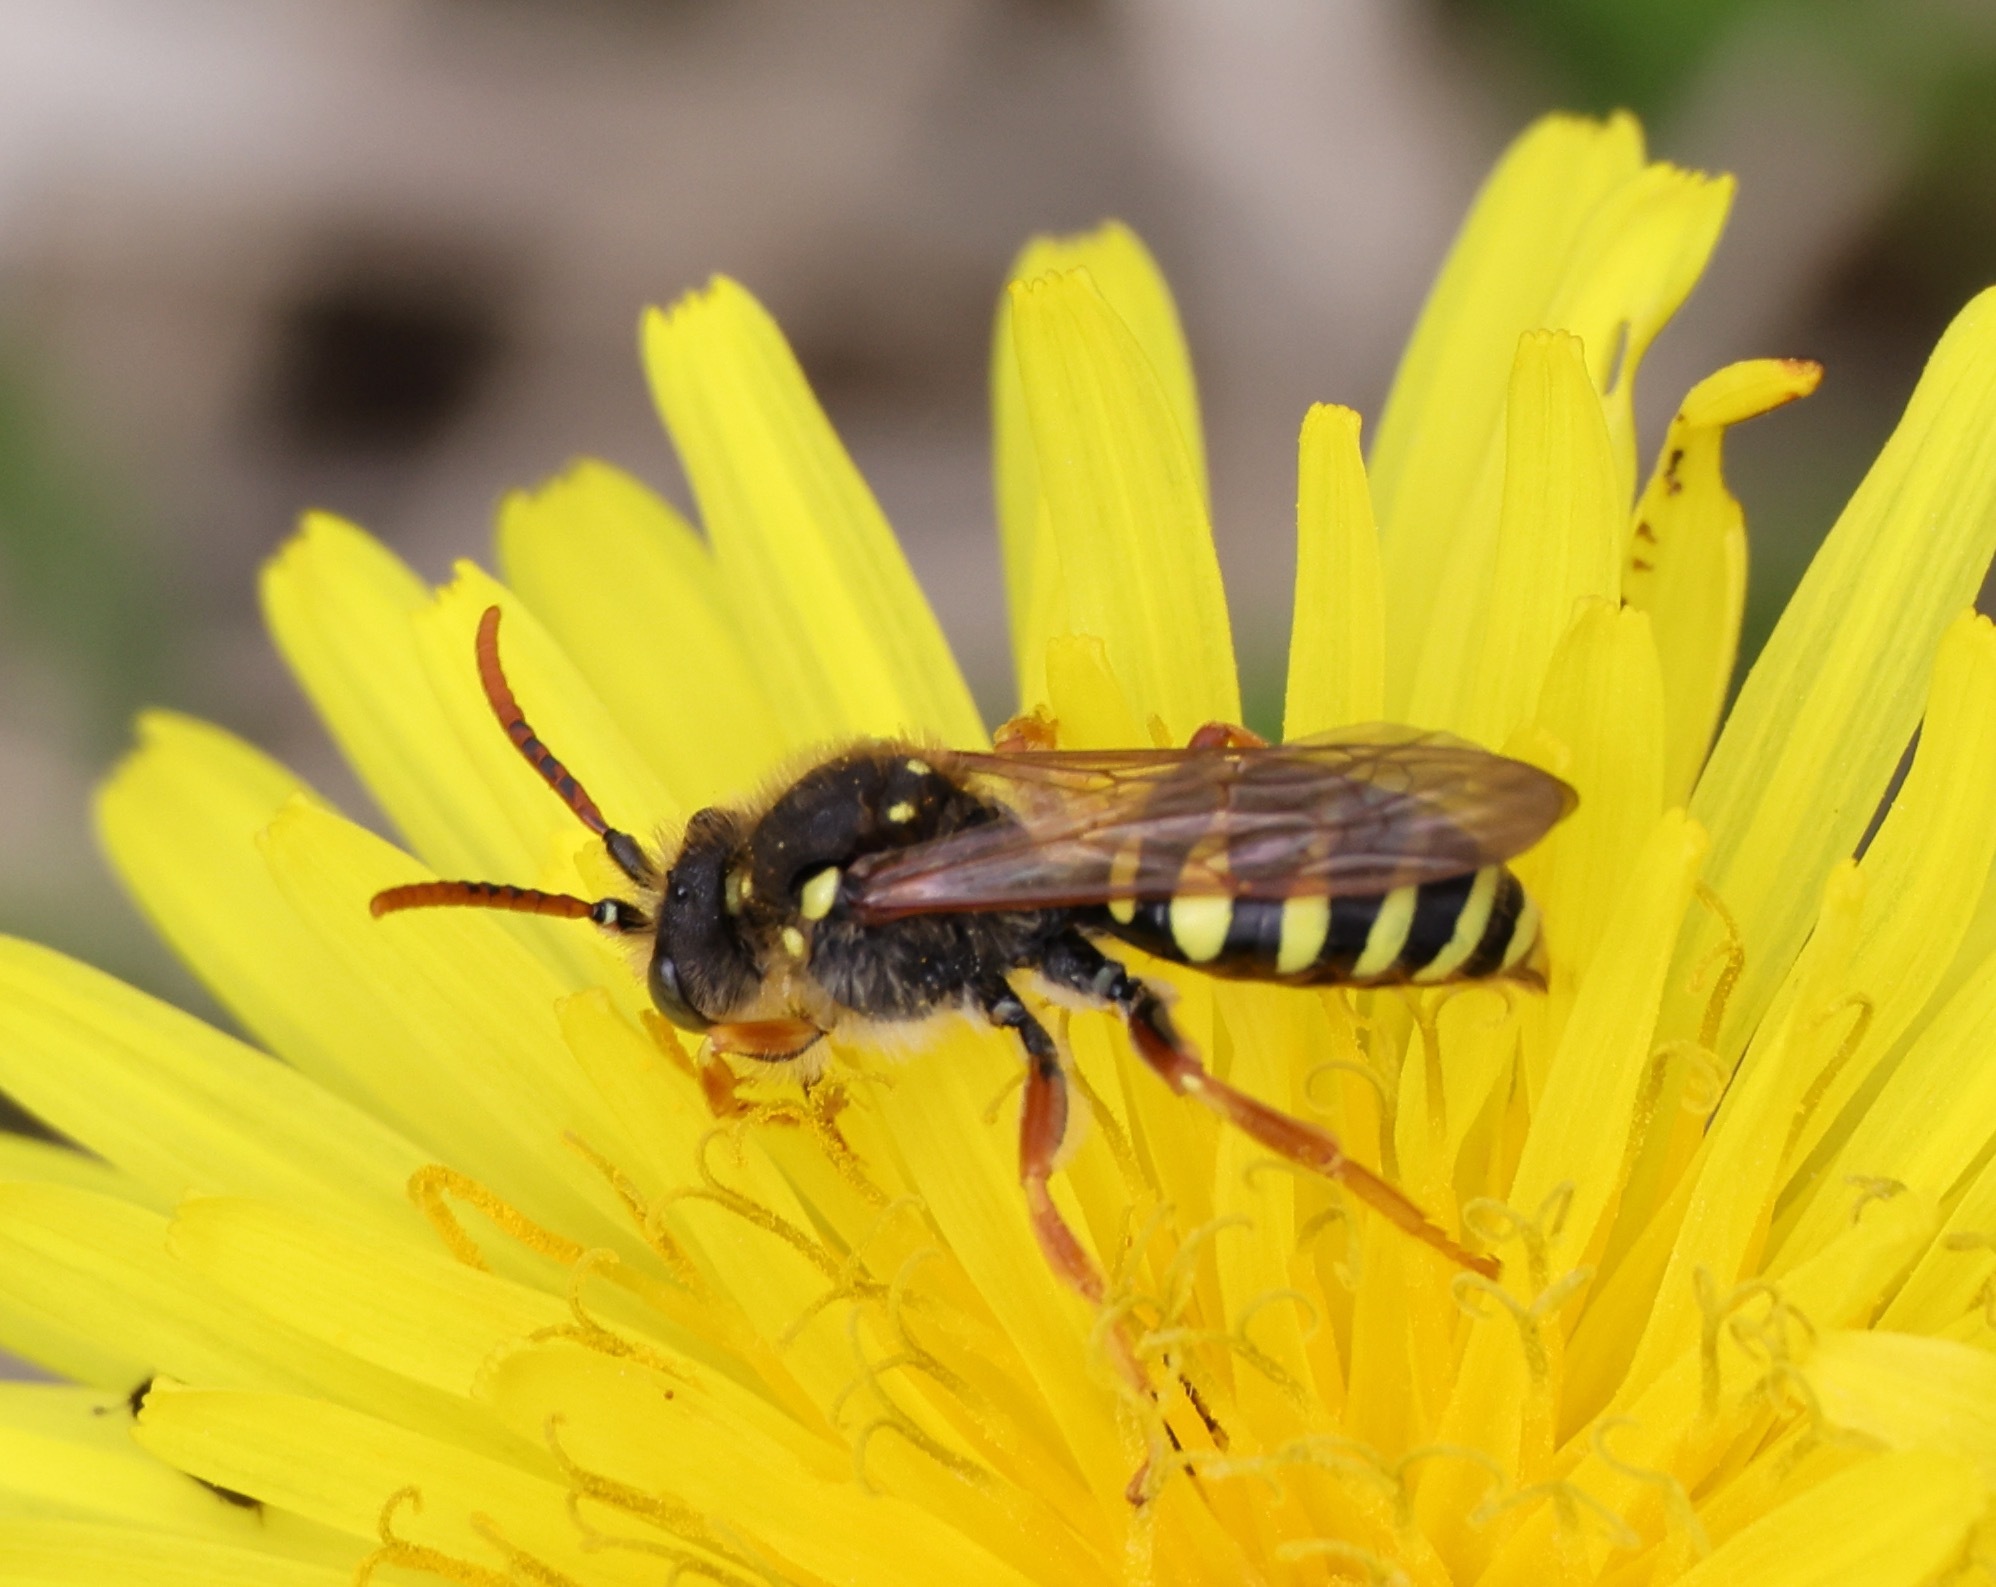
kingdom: Animalia
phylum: Arthropoda
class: Insecta
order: Hymenoptera
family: Apidae
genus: Nomada
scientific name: Nomada goodeniana
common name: Gooden's nomad bee
